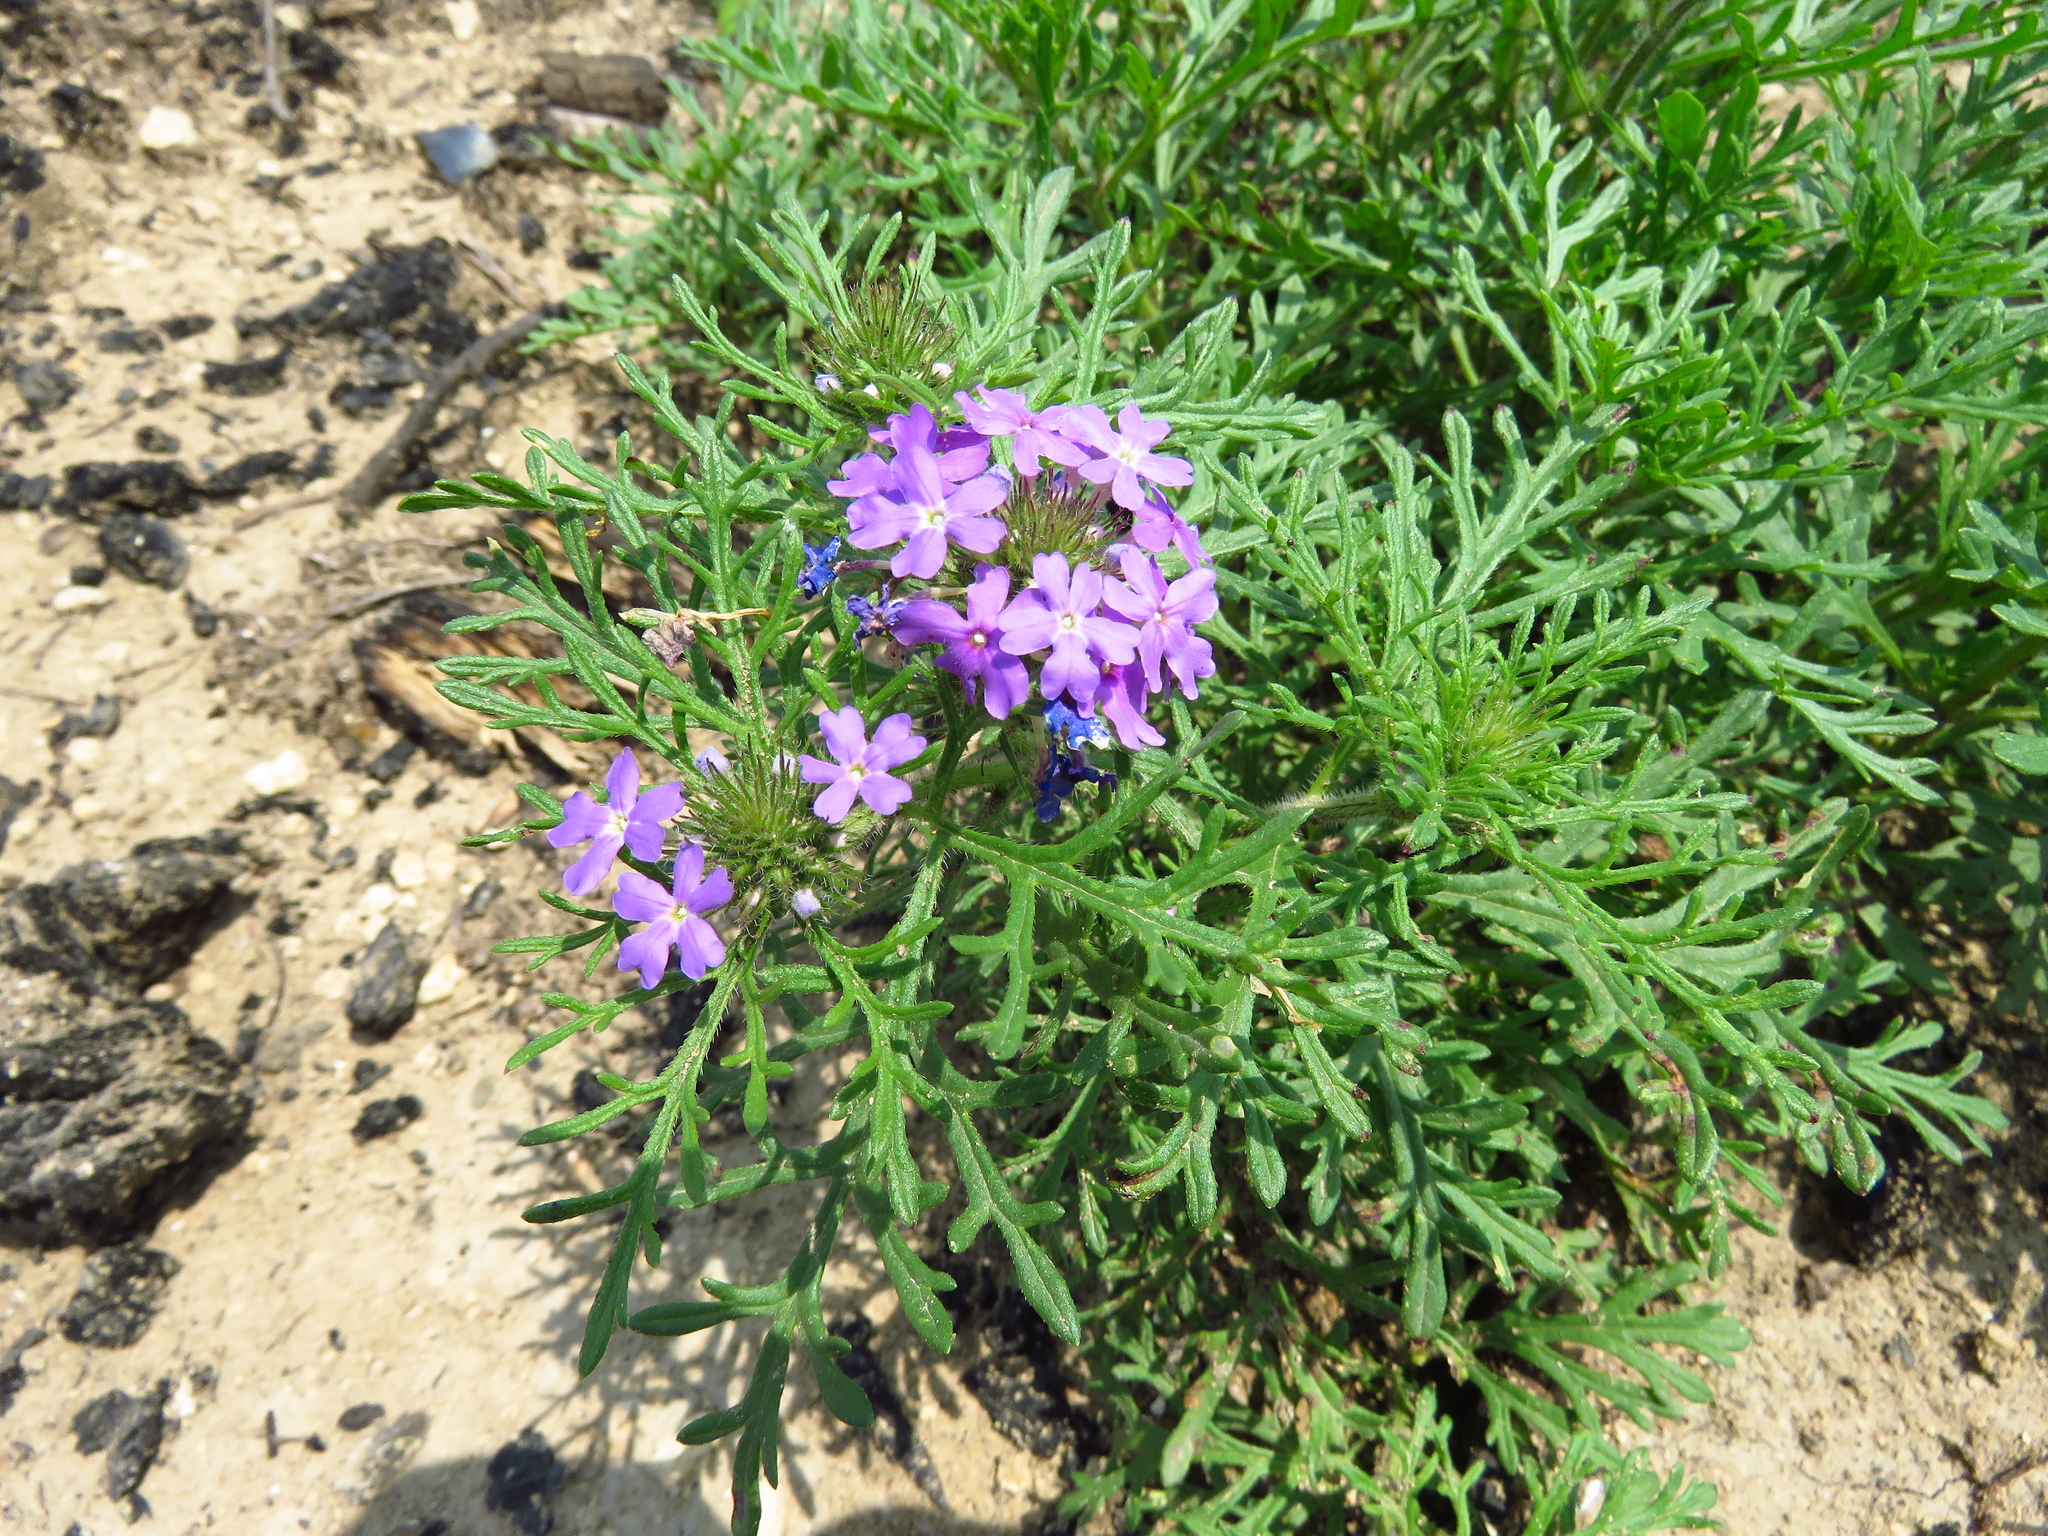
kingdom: Plantae
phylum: Tracheophyta
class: Magnoliopsida
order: Lamiales
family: Verbenaceae
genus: Verbena
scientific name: Verbena bipinnatifida
